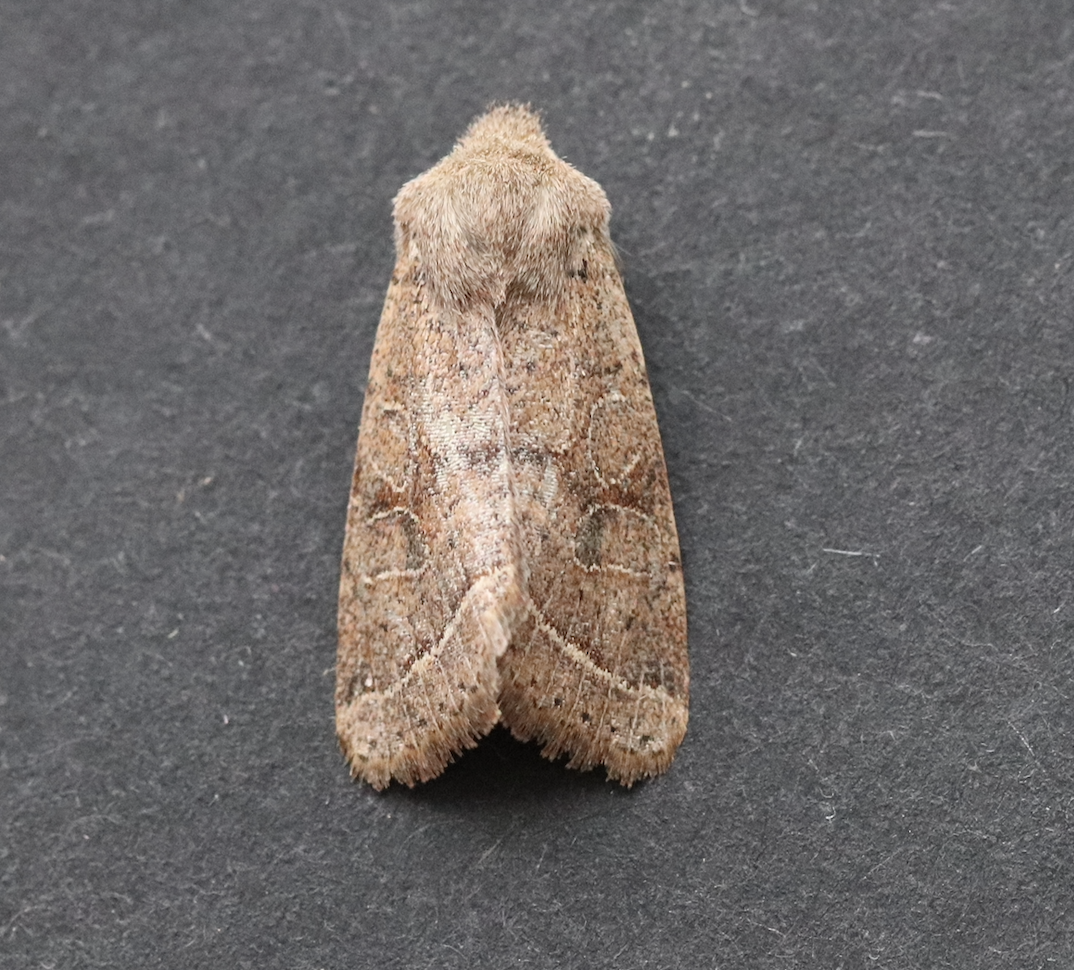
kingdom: Animalia
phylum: Arthropoda
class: Insecta
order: Lepidoptera
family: Noctuidae
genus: Orthosia
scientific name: Orthosia cerasi
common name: Common quaker
